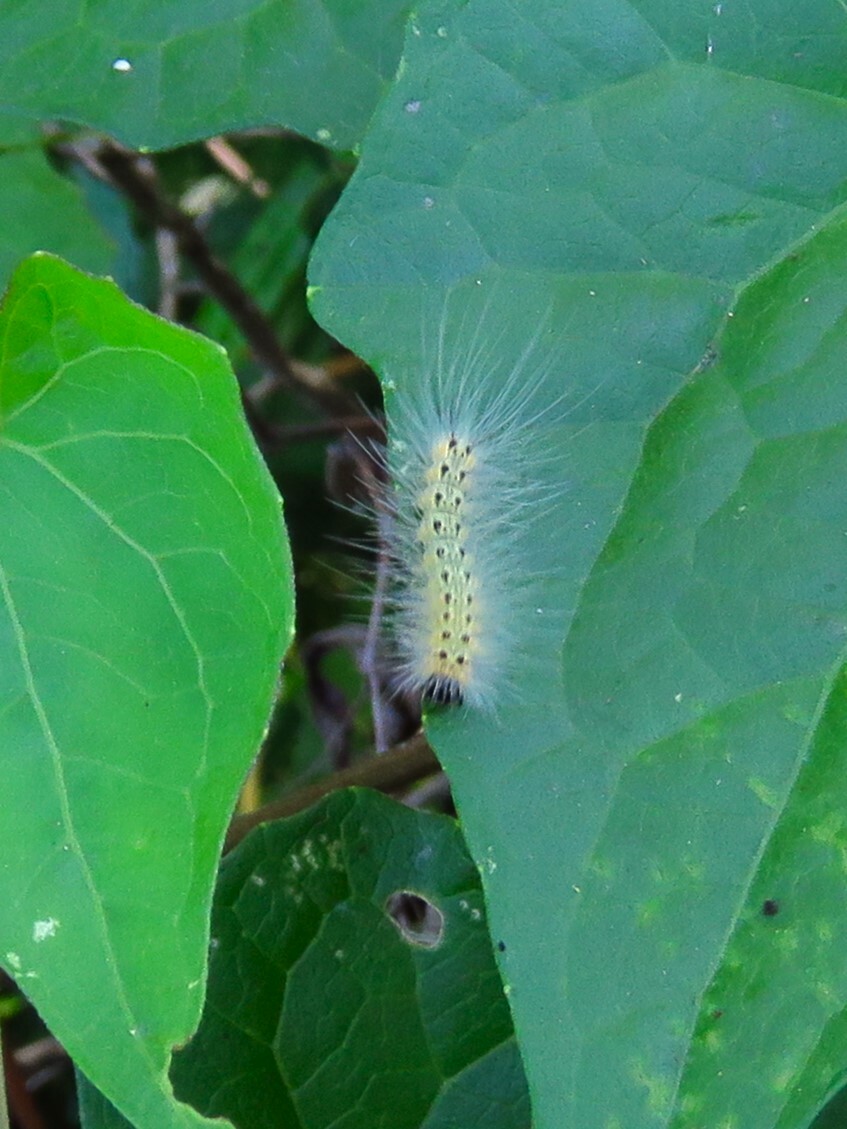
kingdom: Animalia
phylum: Arthropoda
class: Insecta
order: Lepidoptera
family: Erebidae
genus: Hyphantria
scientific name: Hyphantria cunea
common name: American white moth
